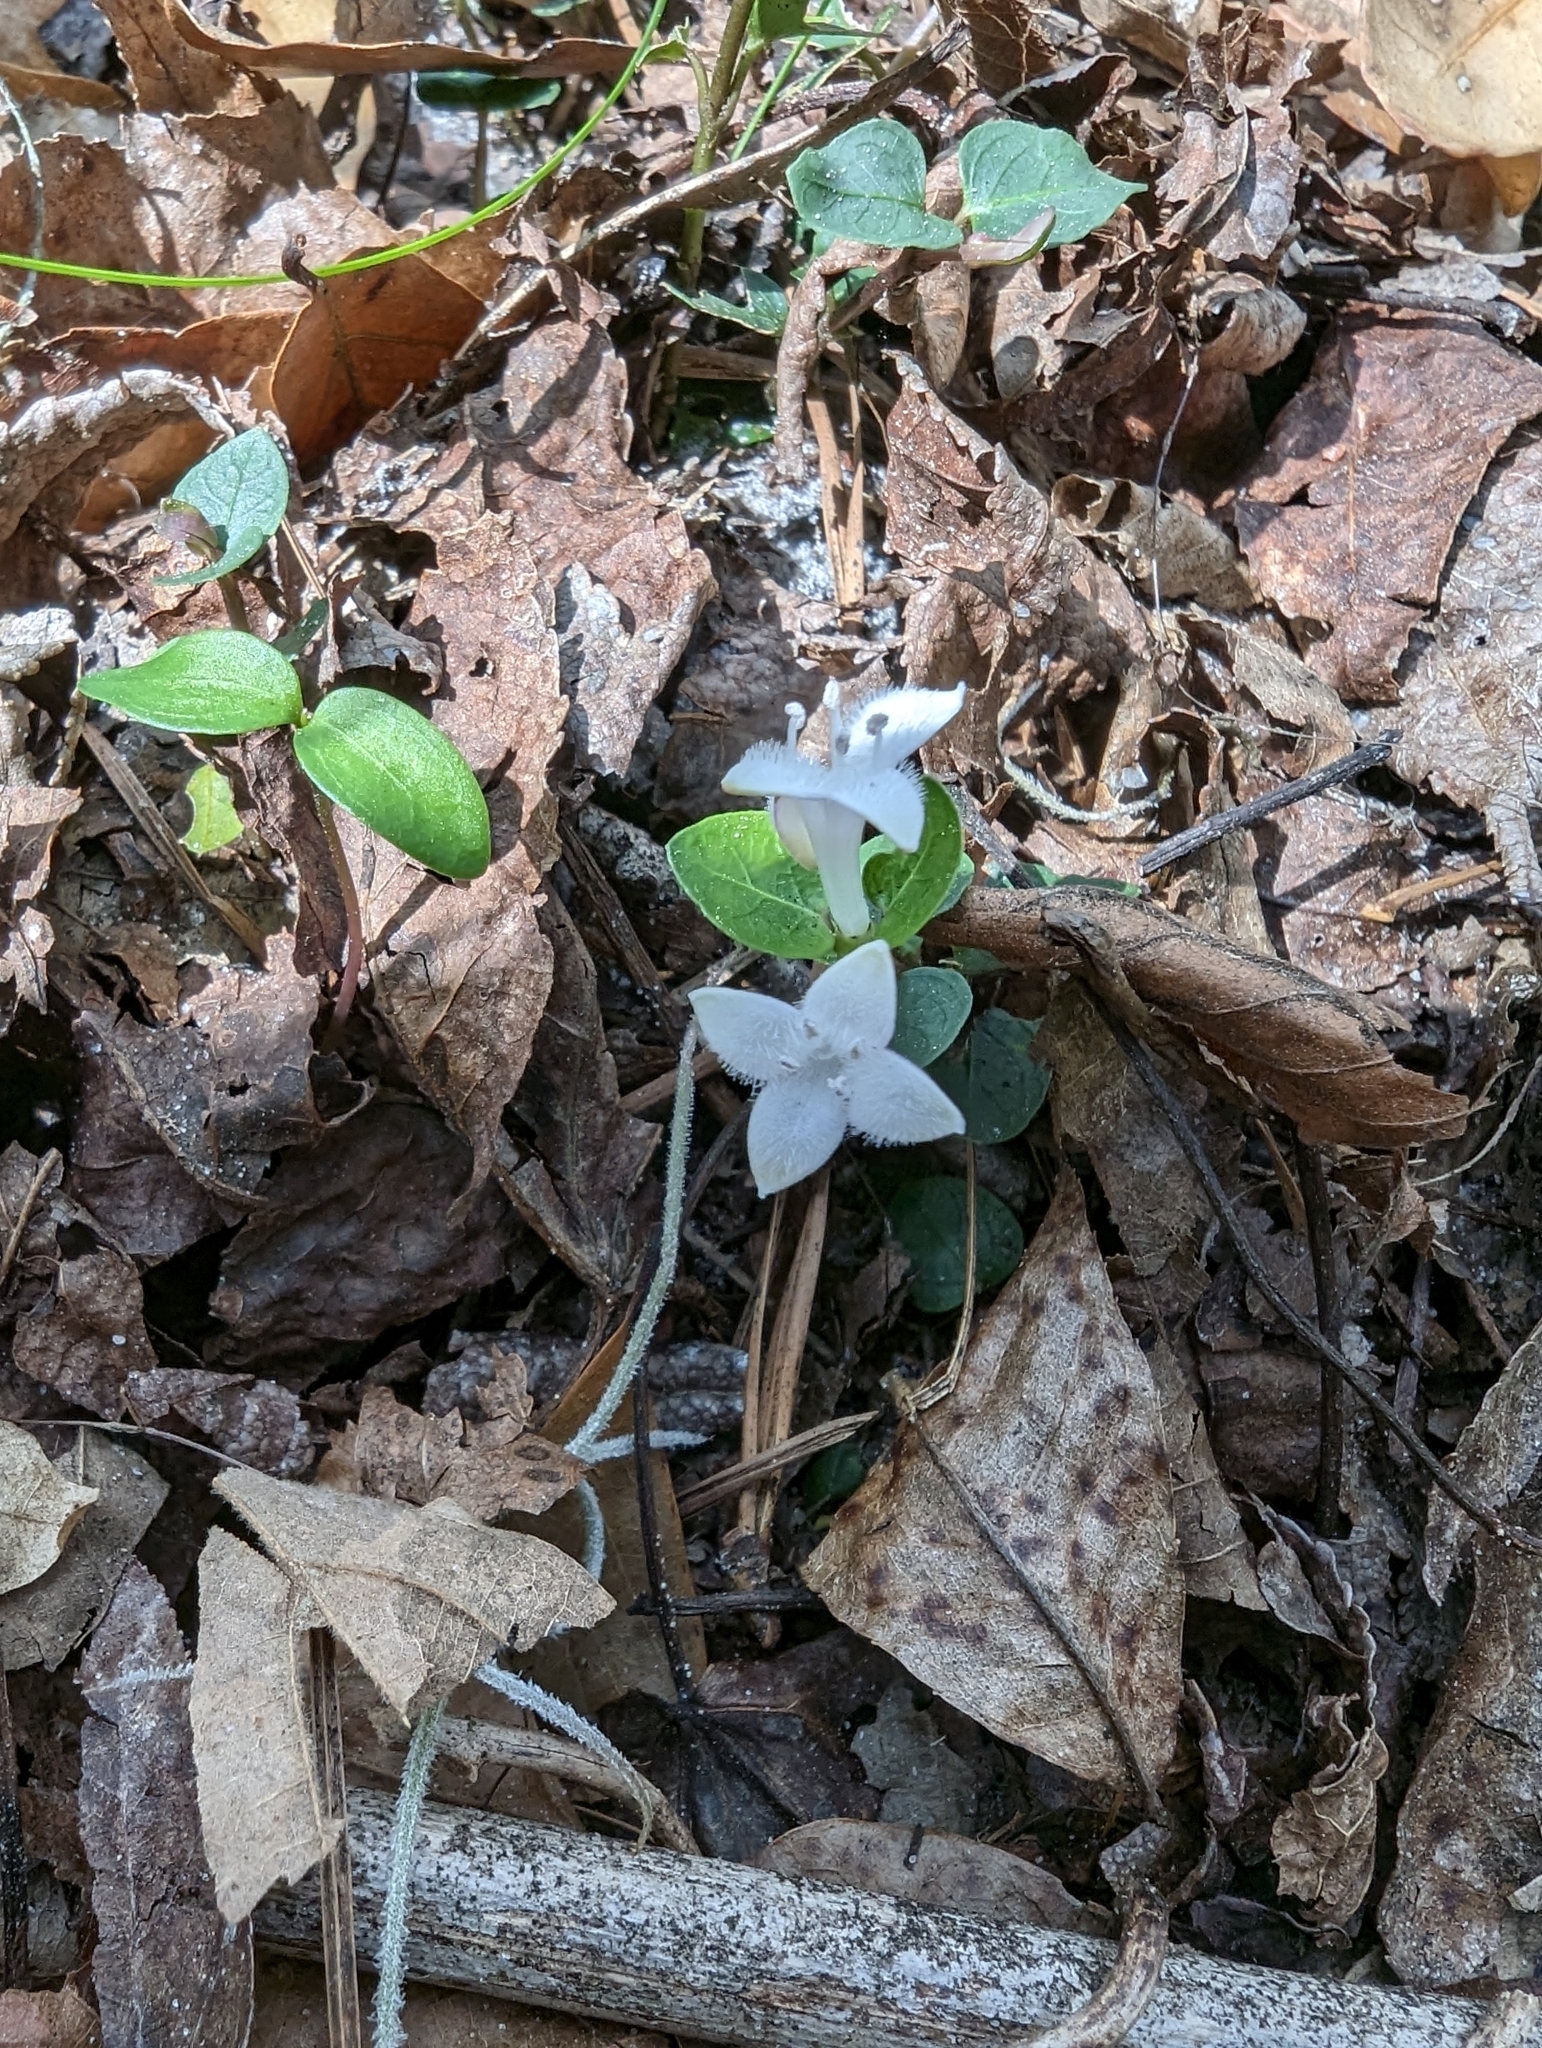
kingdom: Plantae
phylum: Tracheophyta
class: Magnoliopsida
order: Gentianales
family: Rubiaceae
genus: Mitchella
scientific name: Mitchella repens
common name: Partridge-berry
